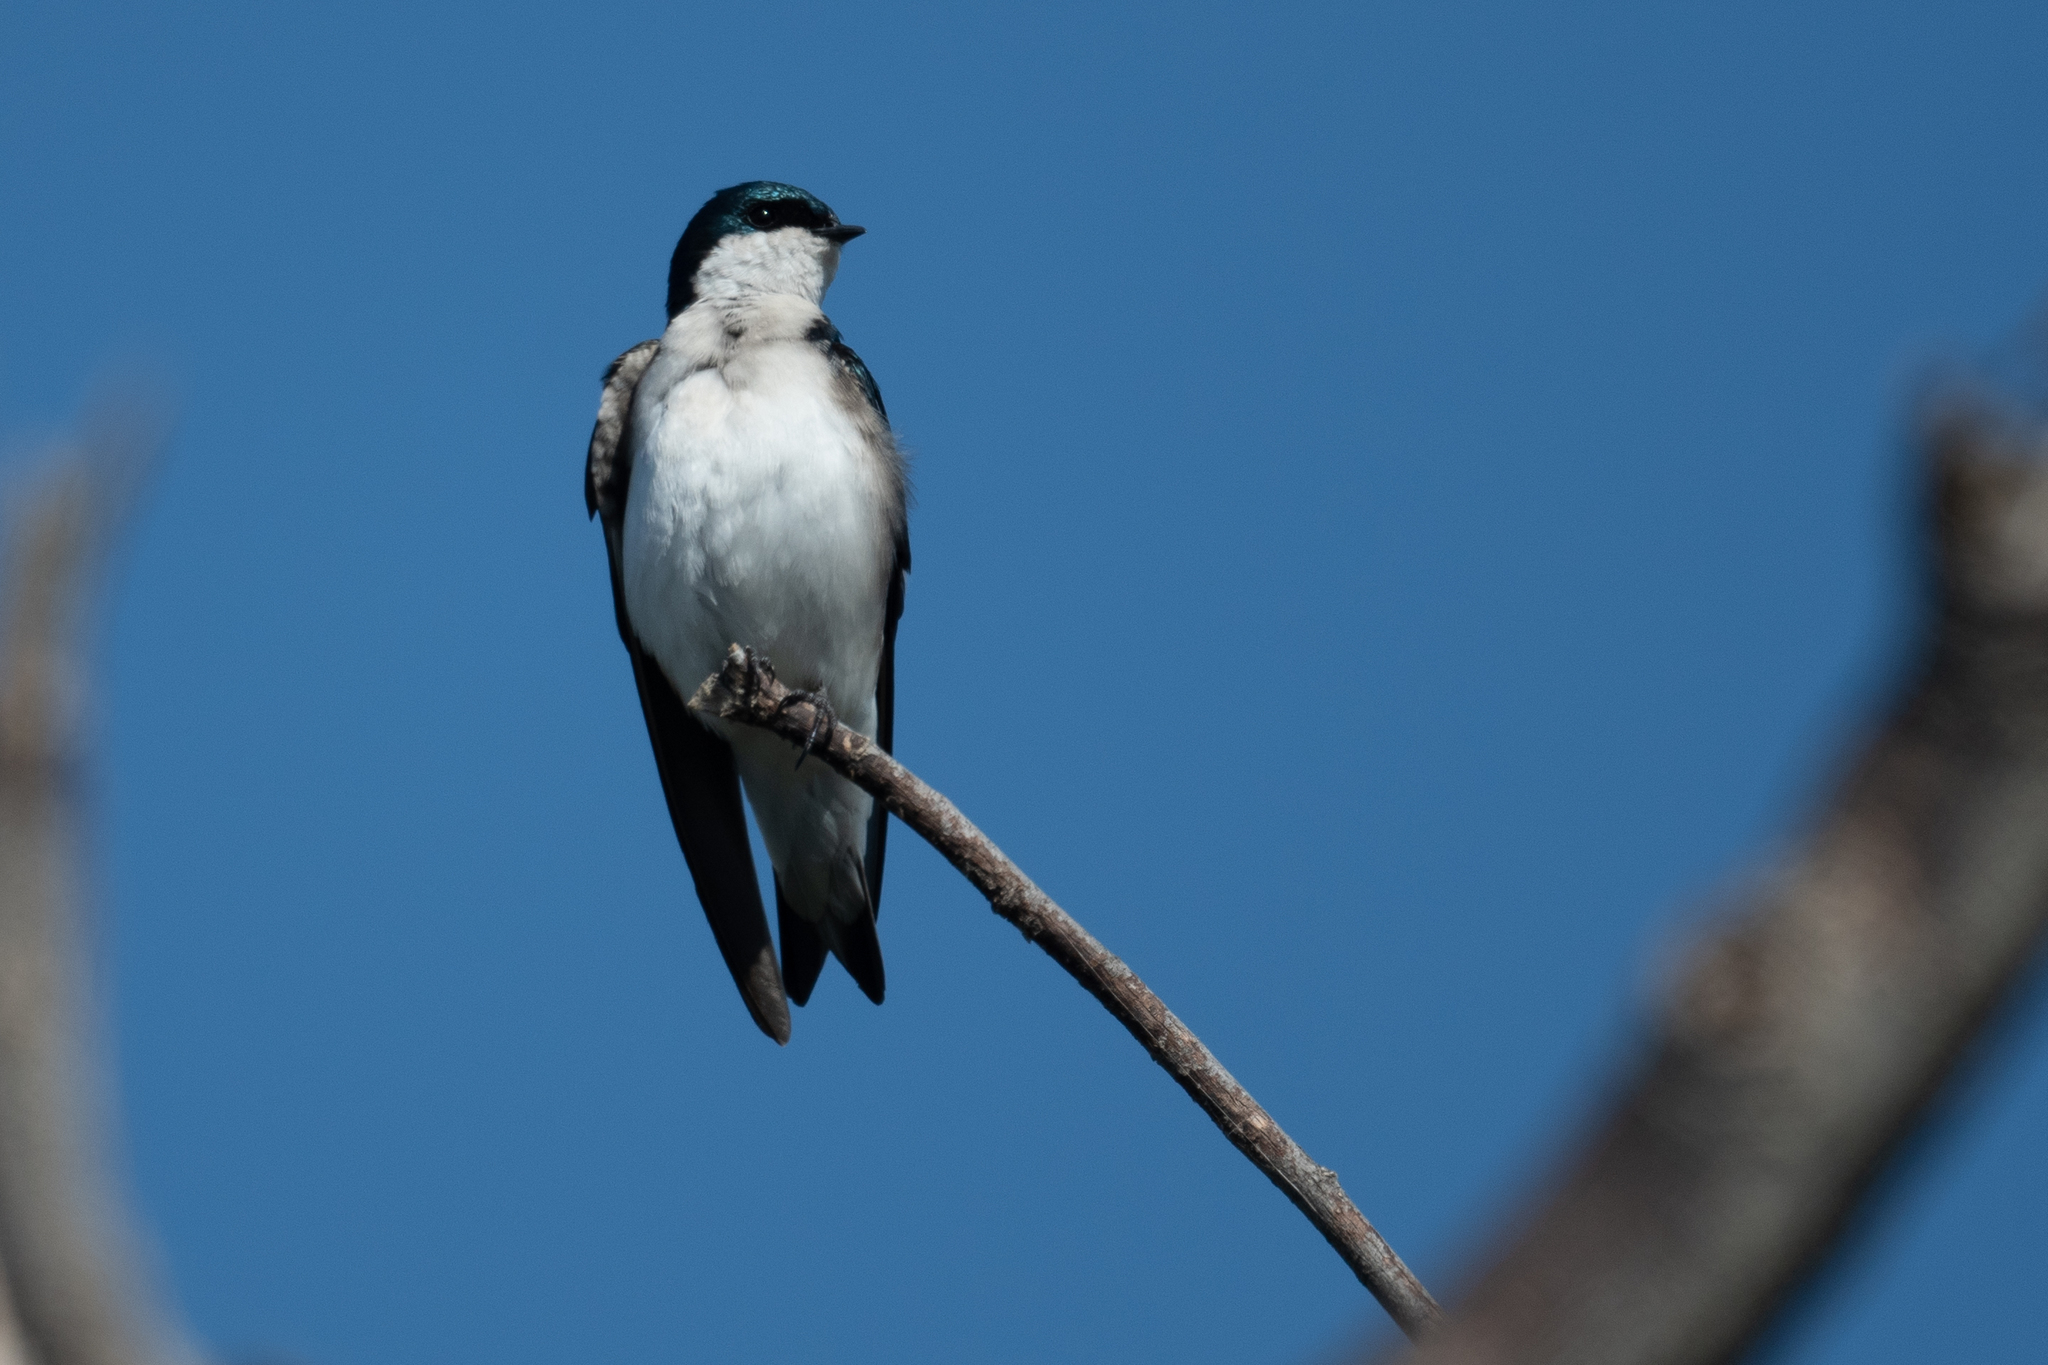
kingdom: Animalia
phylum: Chordata
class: Aves
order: Passeriformes
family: Hirundinidae
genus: Tachycineta
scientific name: Tachycineta bicolor
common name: Tree swallow
